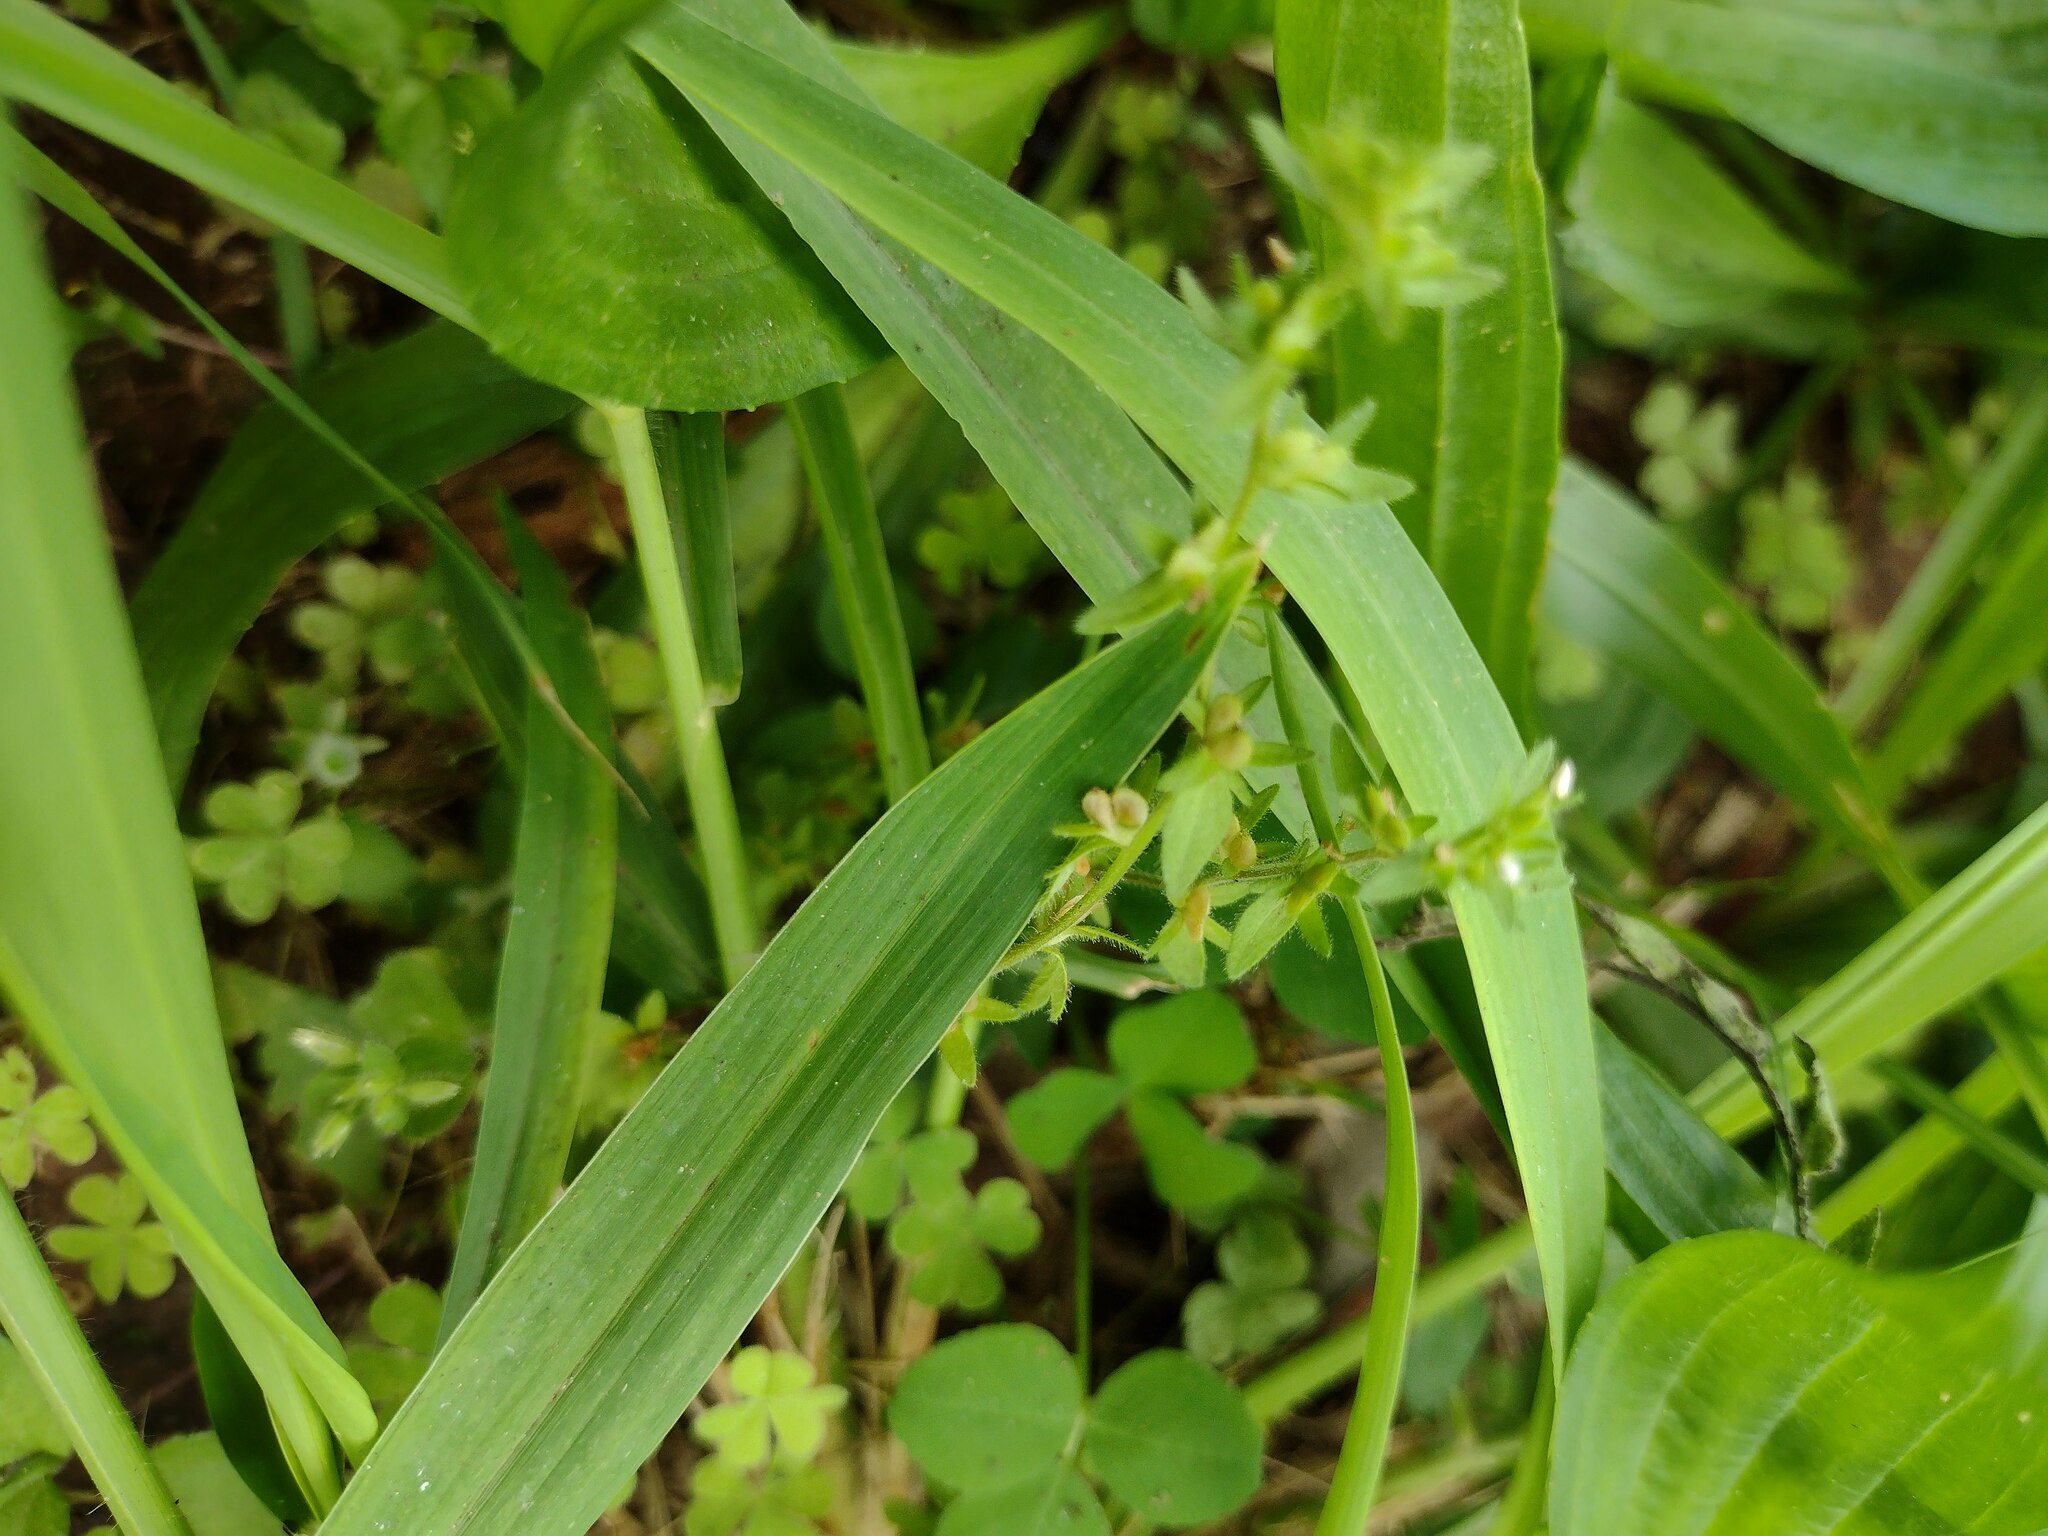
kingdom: Plantae
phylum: Tracheophyta
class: Magnoliopsida
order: Lamiales
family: Plantaginaceae
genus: Veronica
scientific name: Veronica arvensis
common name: Corn speedwell
